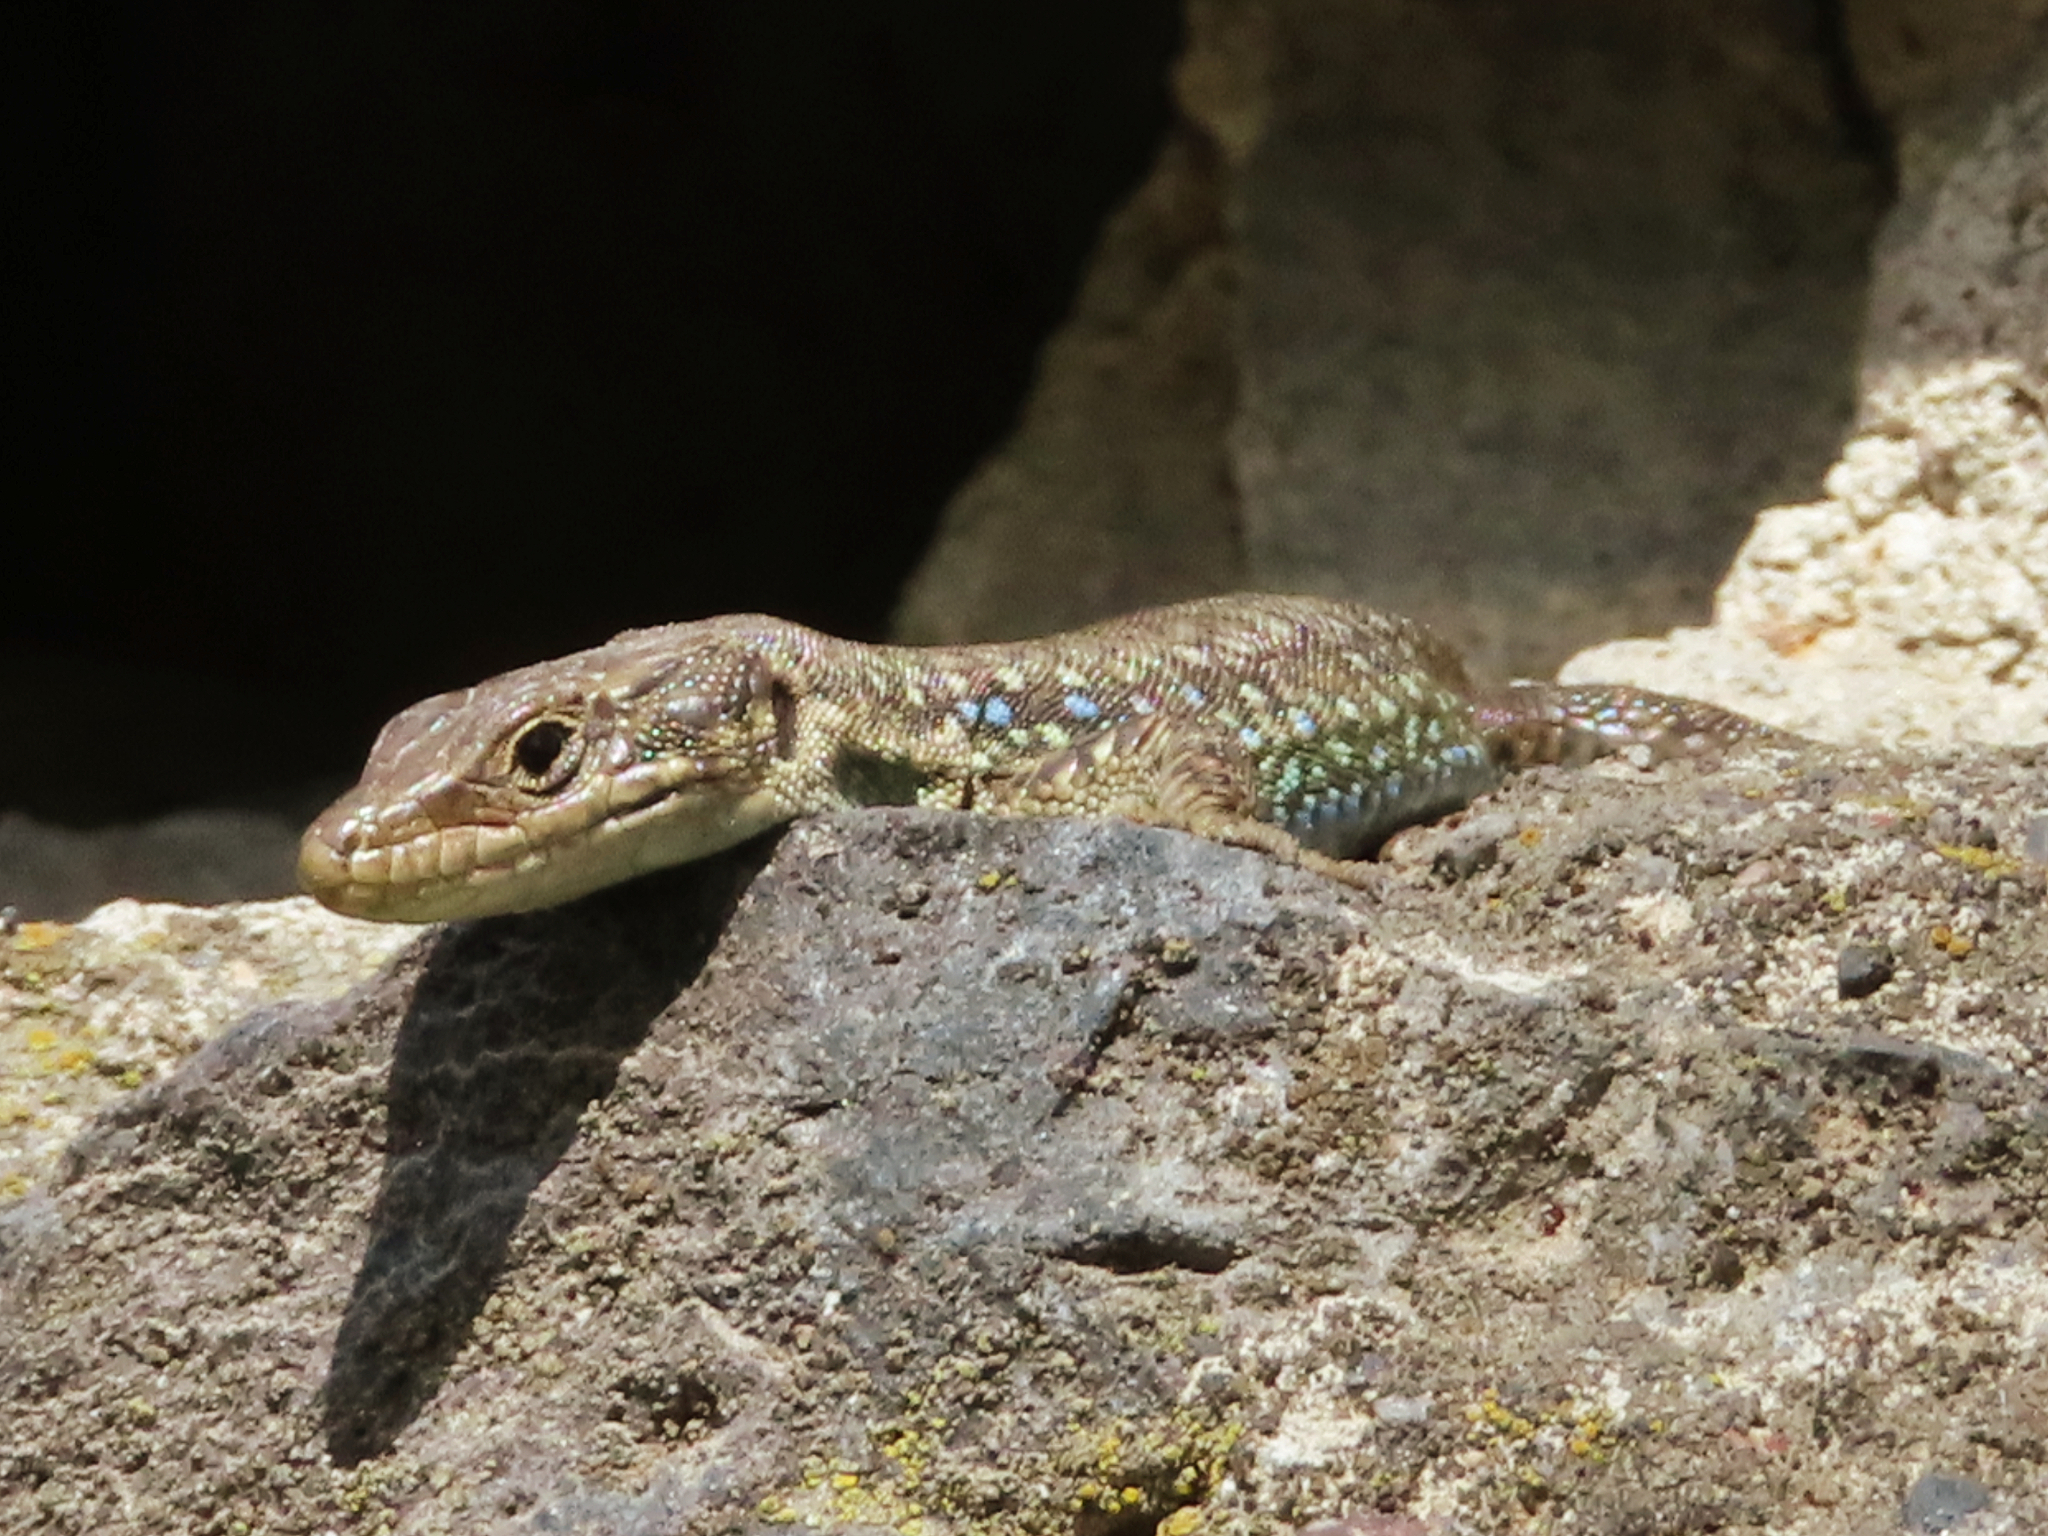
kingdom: Animalia
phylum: Chordata
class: Squamata
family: Lacertidae
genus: Darevskia
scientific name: Darevskia
